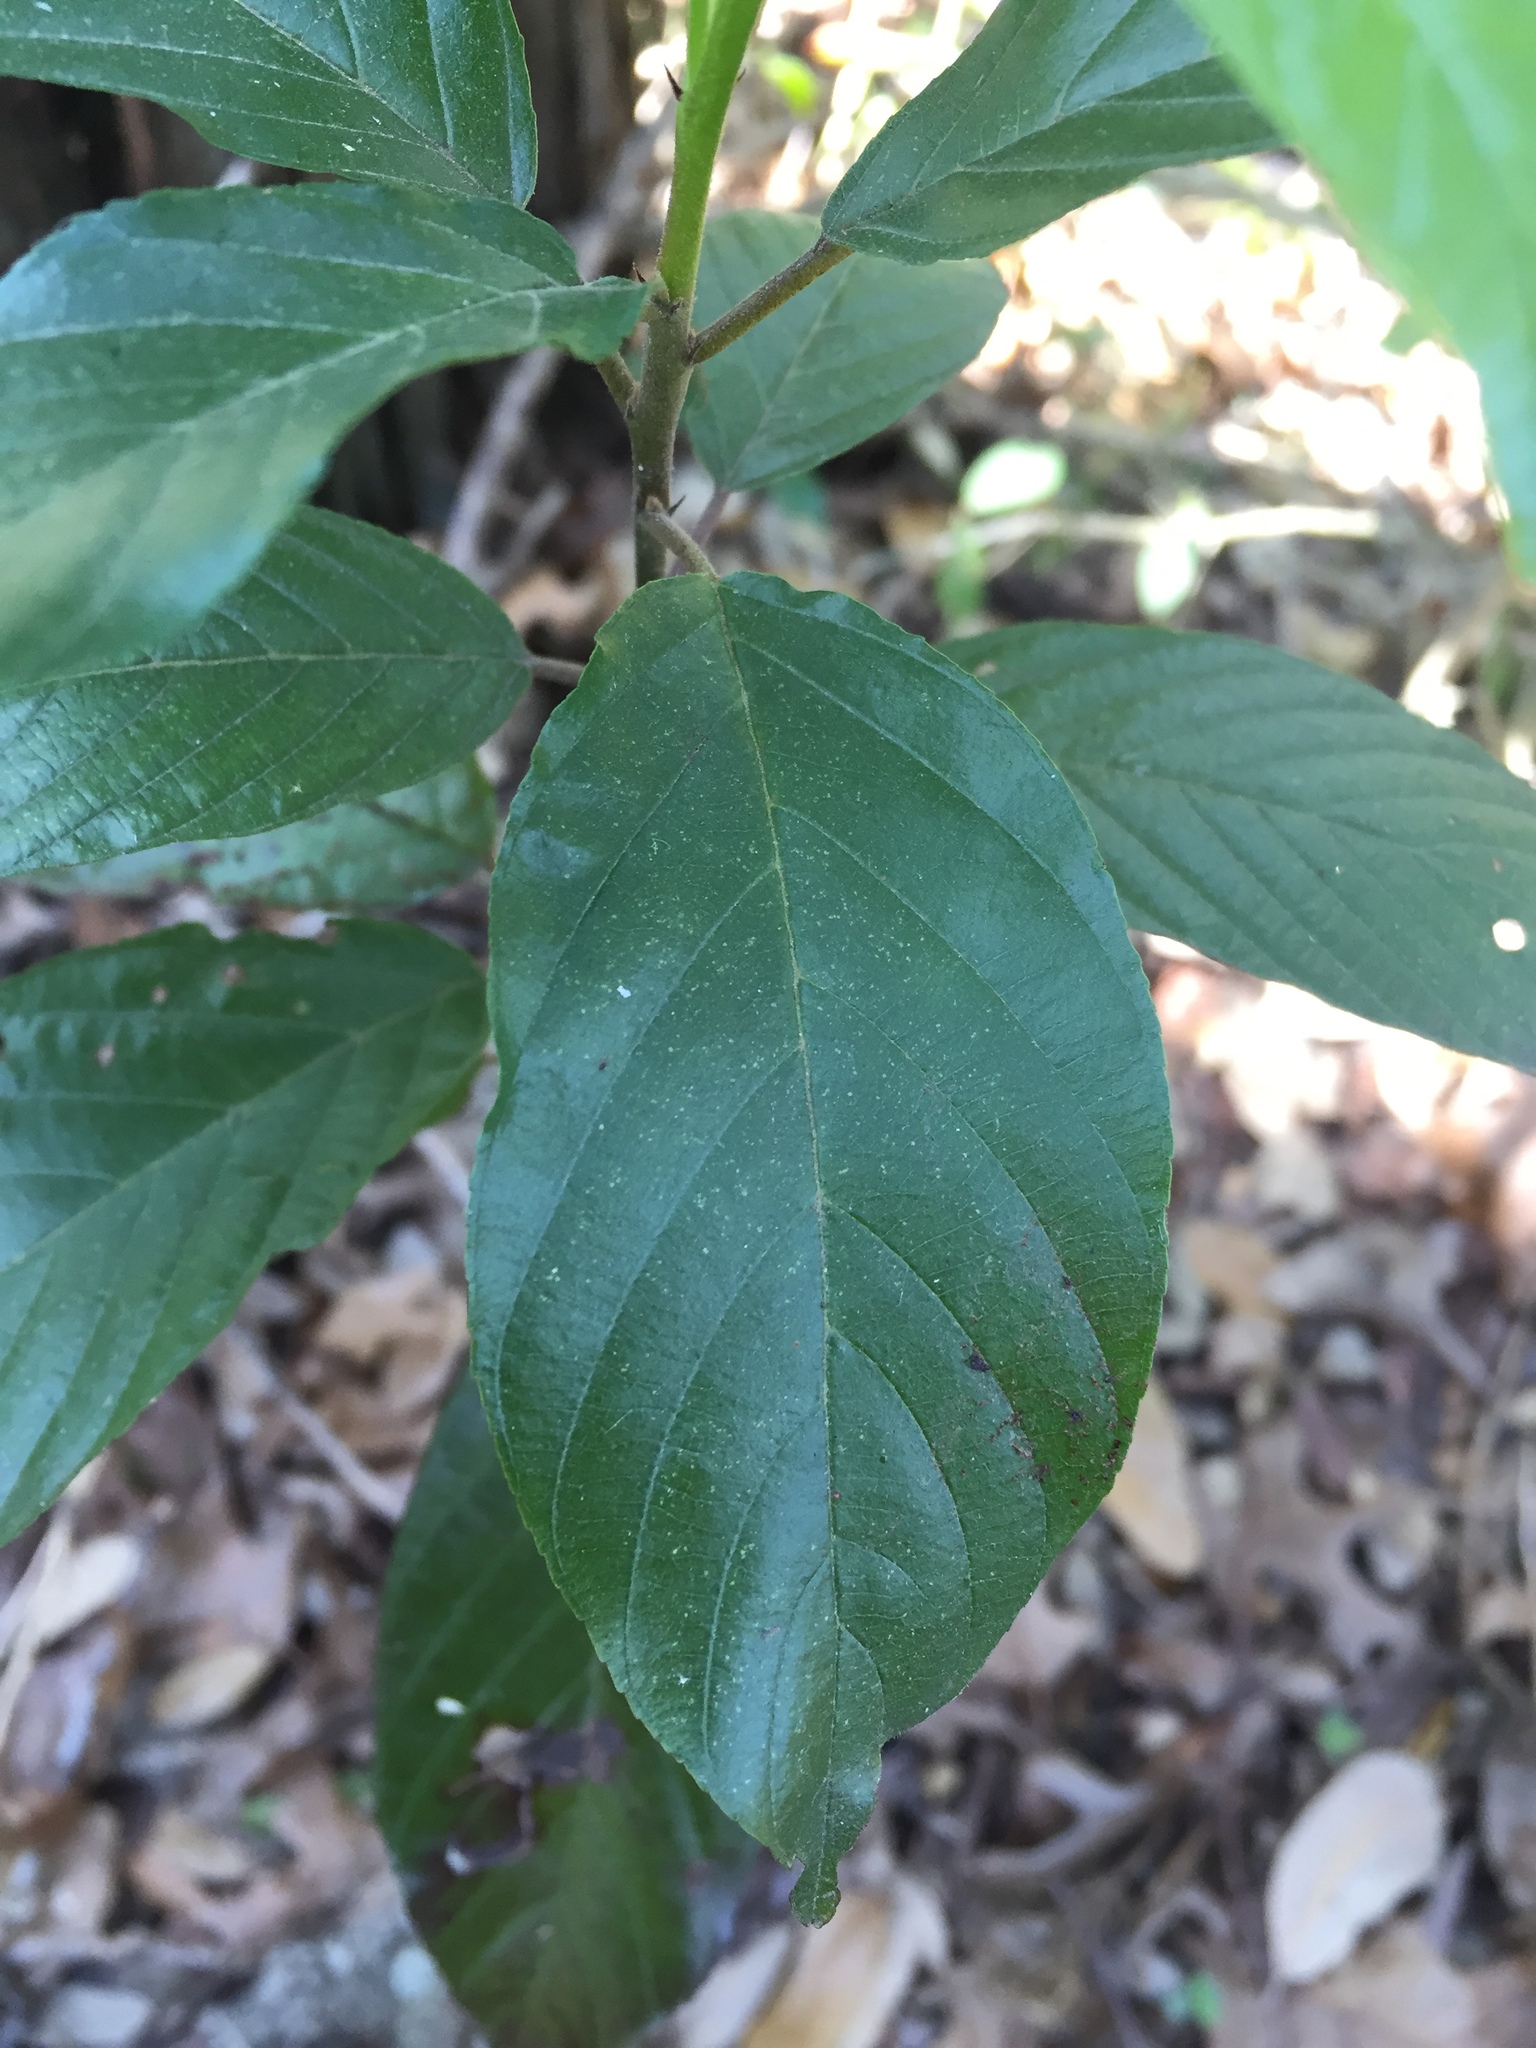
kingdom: Plantae
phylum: Tracheophyta
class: Magnoliopsida
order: Rosales
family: Rhamnaceae
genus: Frangula
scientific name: Frangula caroliniana
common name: Carolina buckthorn
